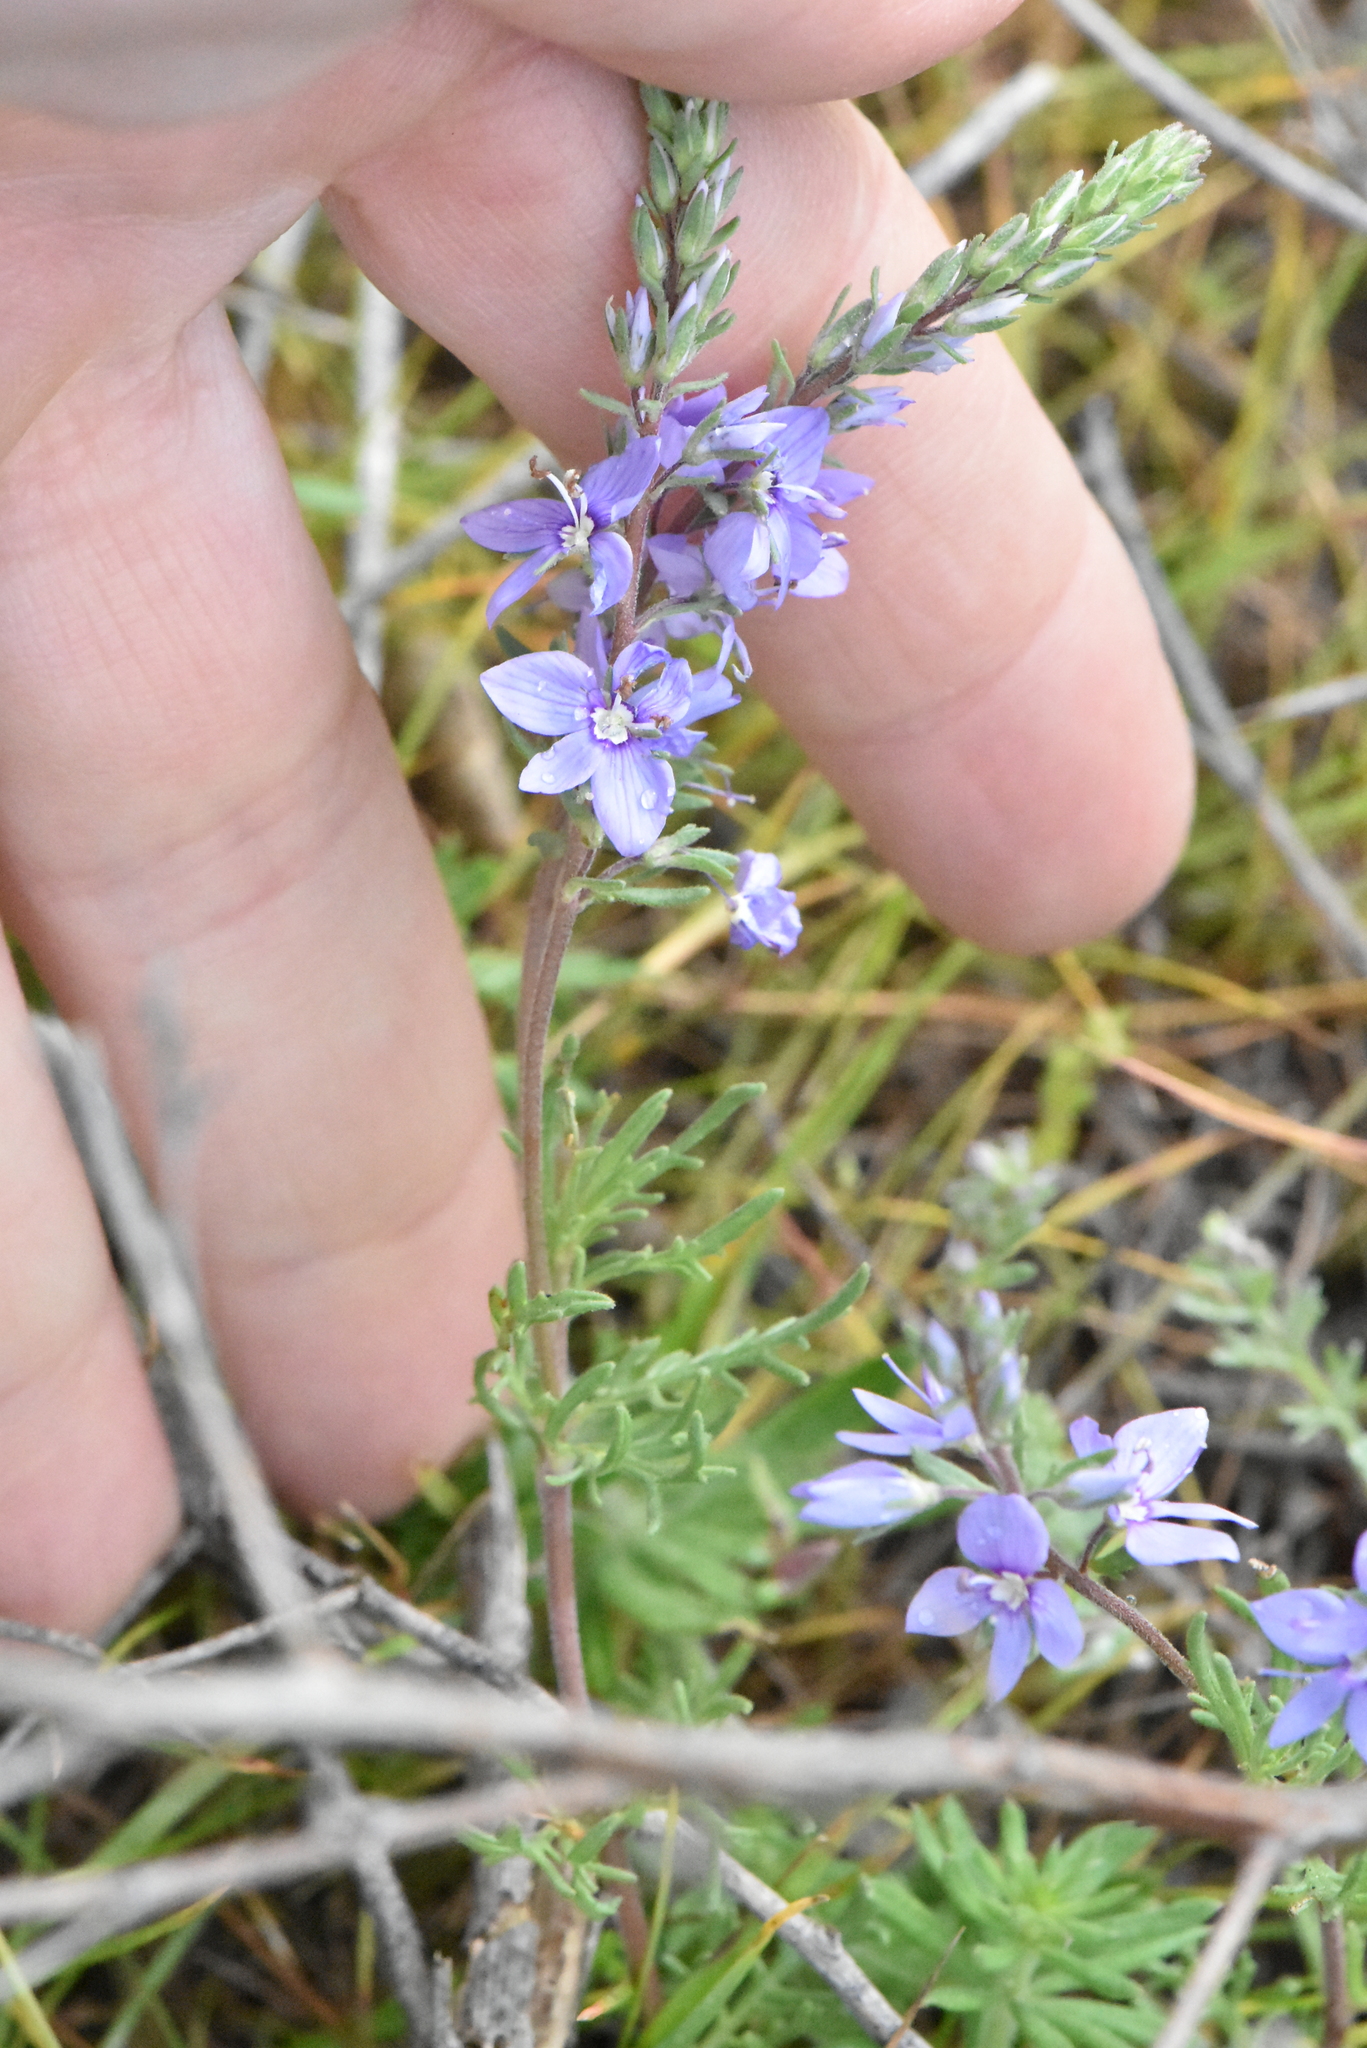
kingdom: Plantae
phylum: Tracheophyta
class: Magnoliopsida
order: Lamiales
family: Plantaginaceae
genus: Veronica
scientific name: Veronica multifida
